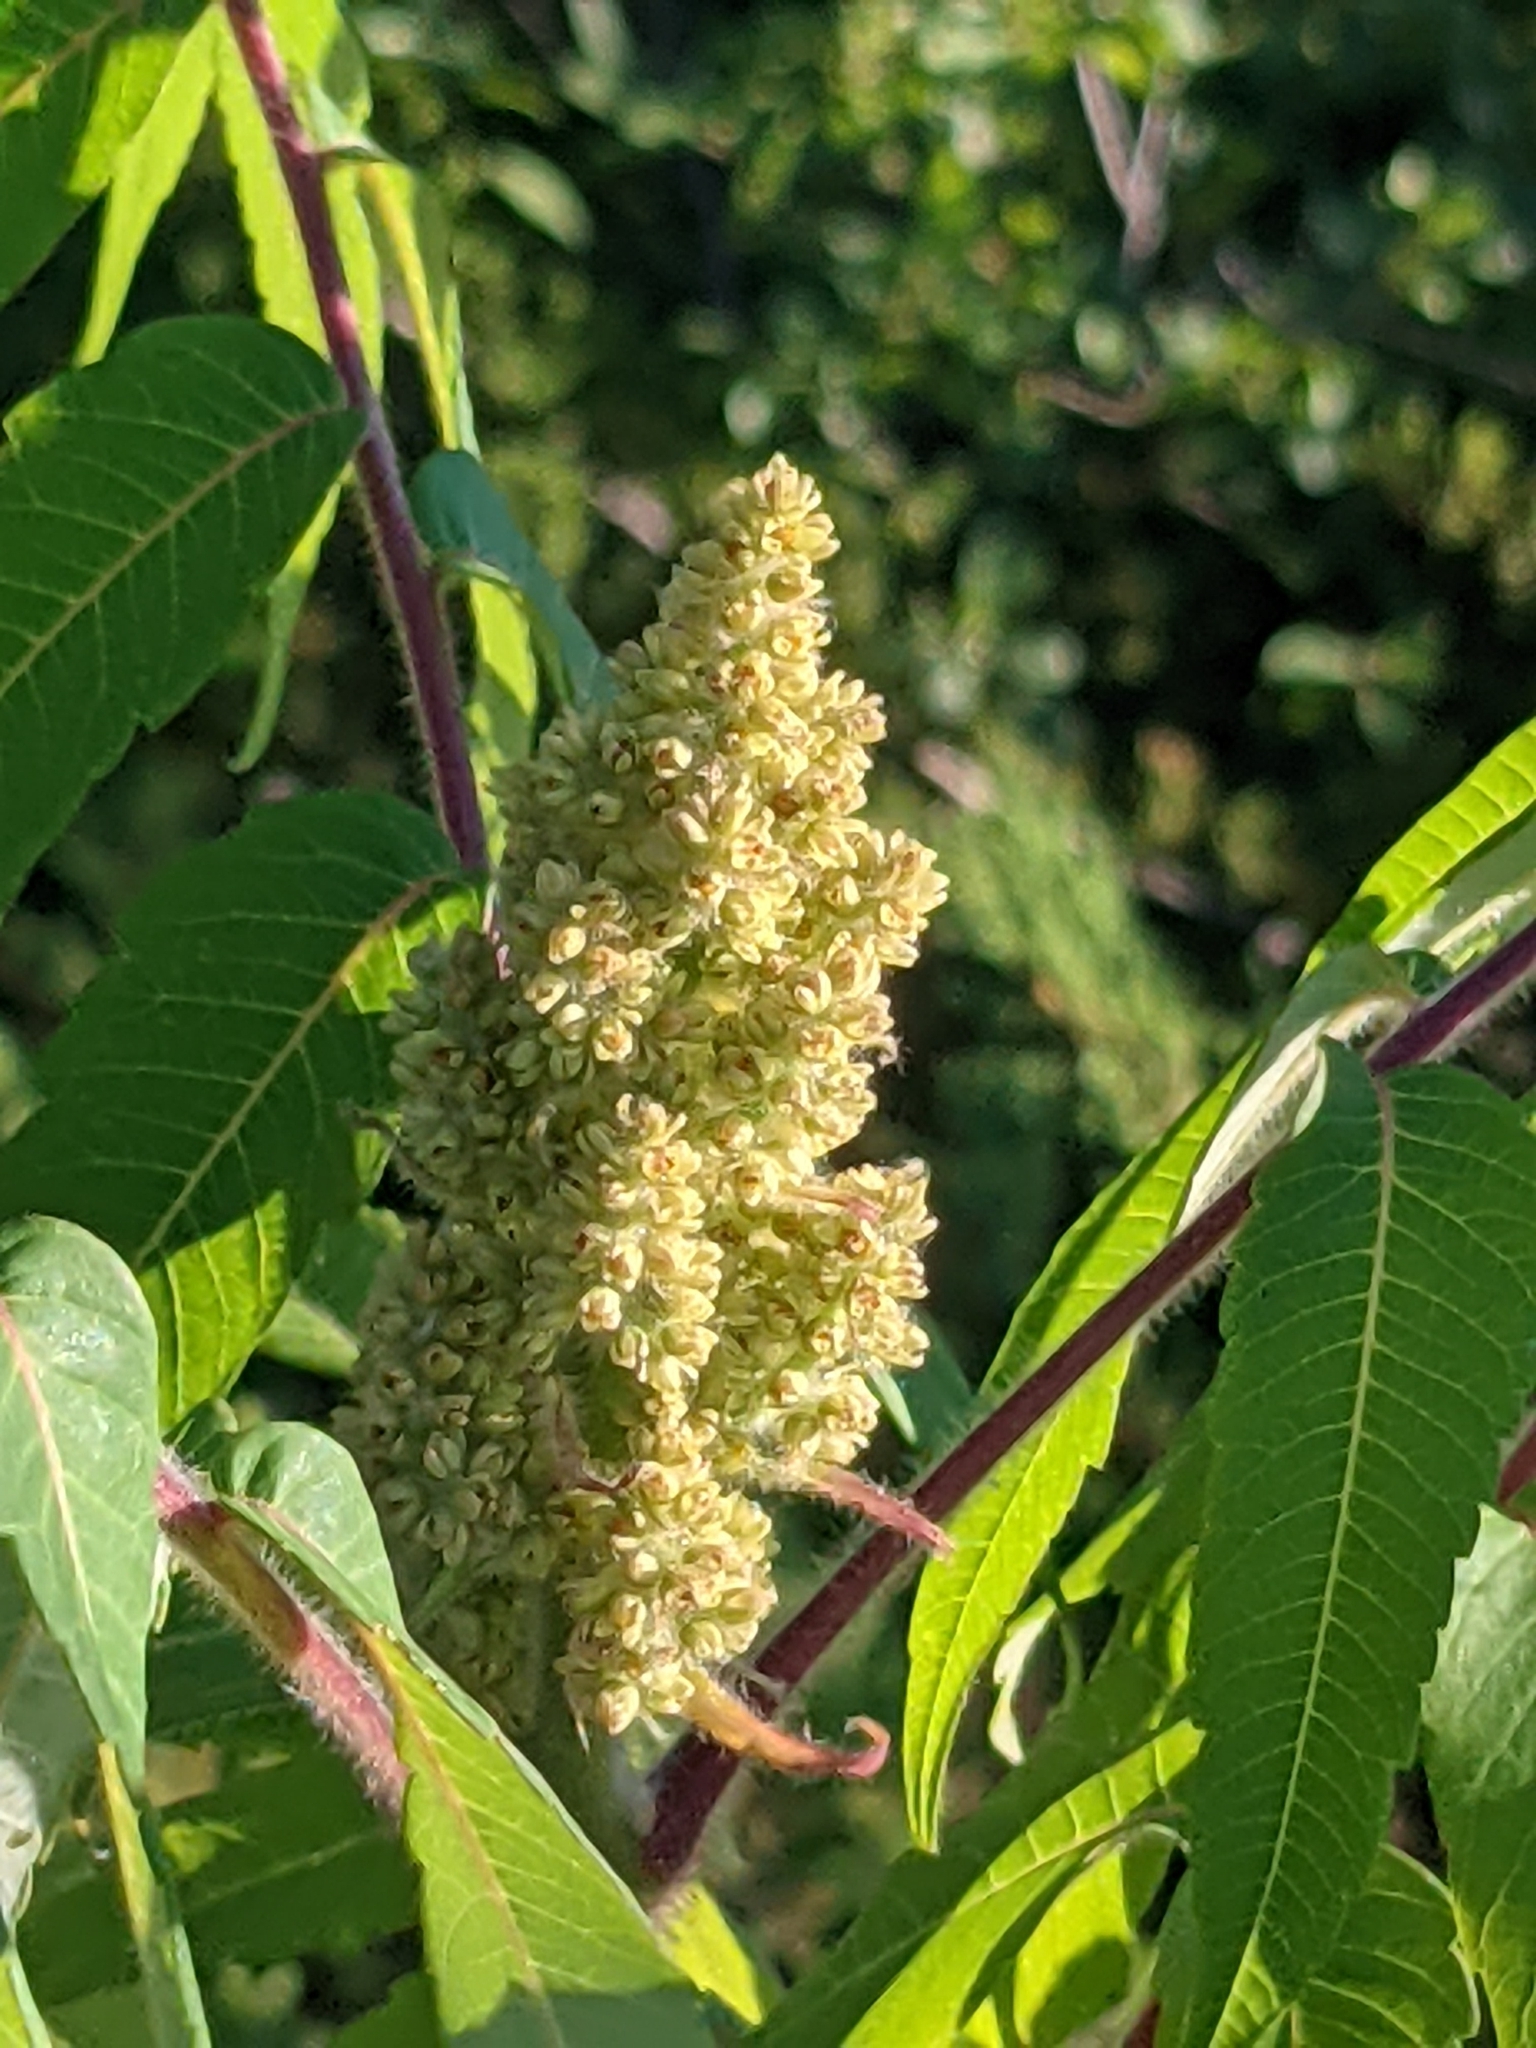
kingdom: Plantae
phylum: Tracheophyta
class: Magnoliopsida
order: Sapindales
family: Anacardiaceae
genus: Rhus
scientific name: Rhus typhina
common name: Staghorn sumac
